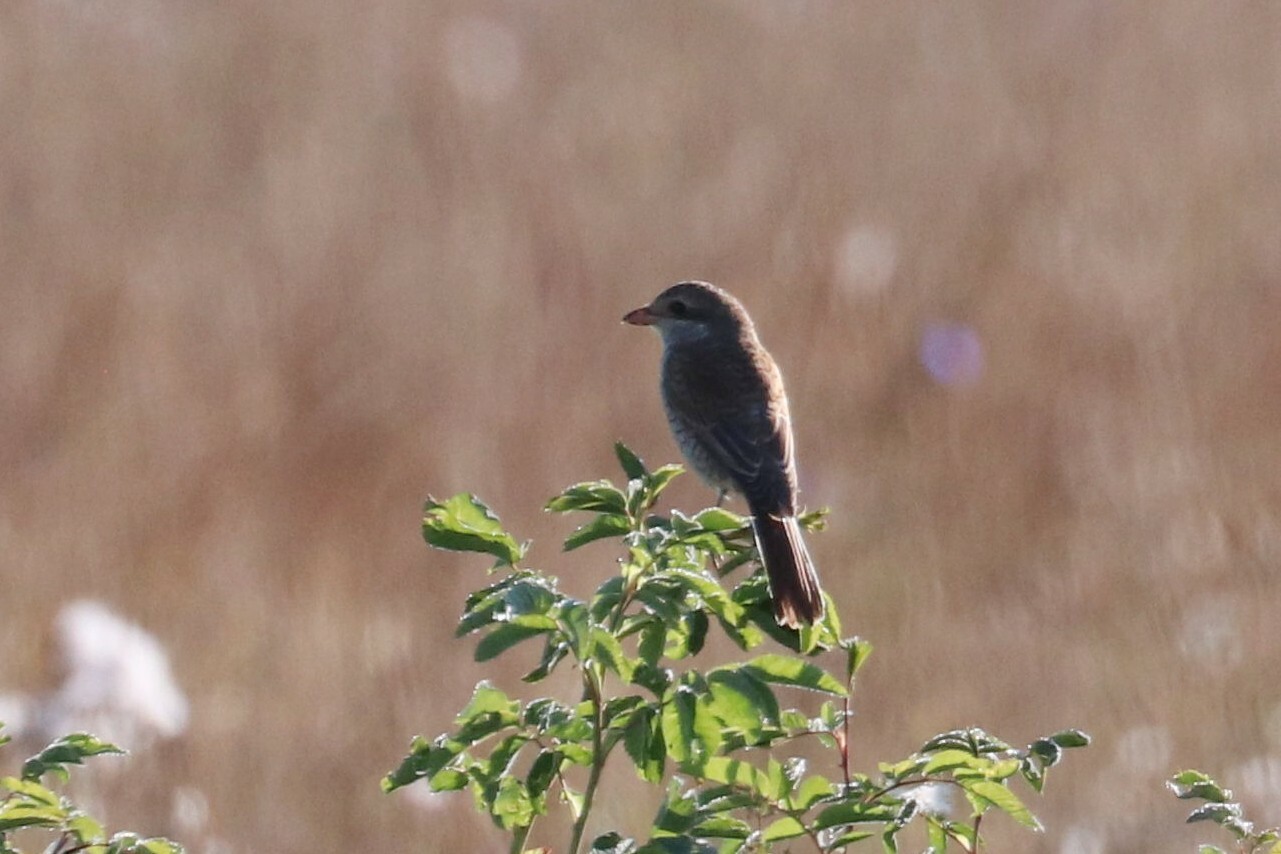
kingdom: Animalia
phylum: Chordata
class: Aves
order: Passeriformes
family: Laniidae
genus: Lanius
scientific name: Lanius collurio
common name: Red-backed shrike
